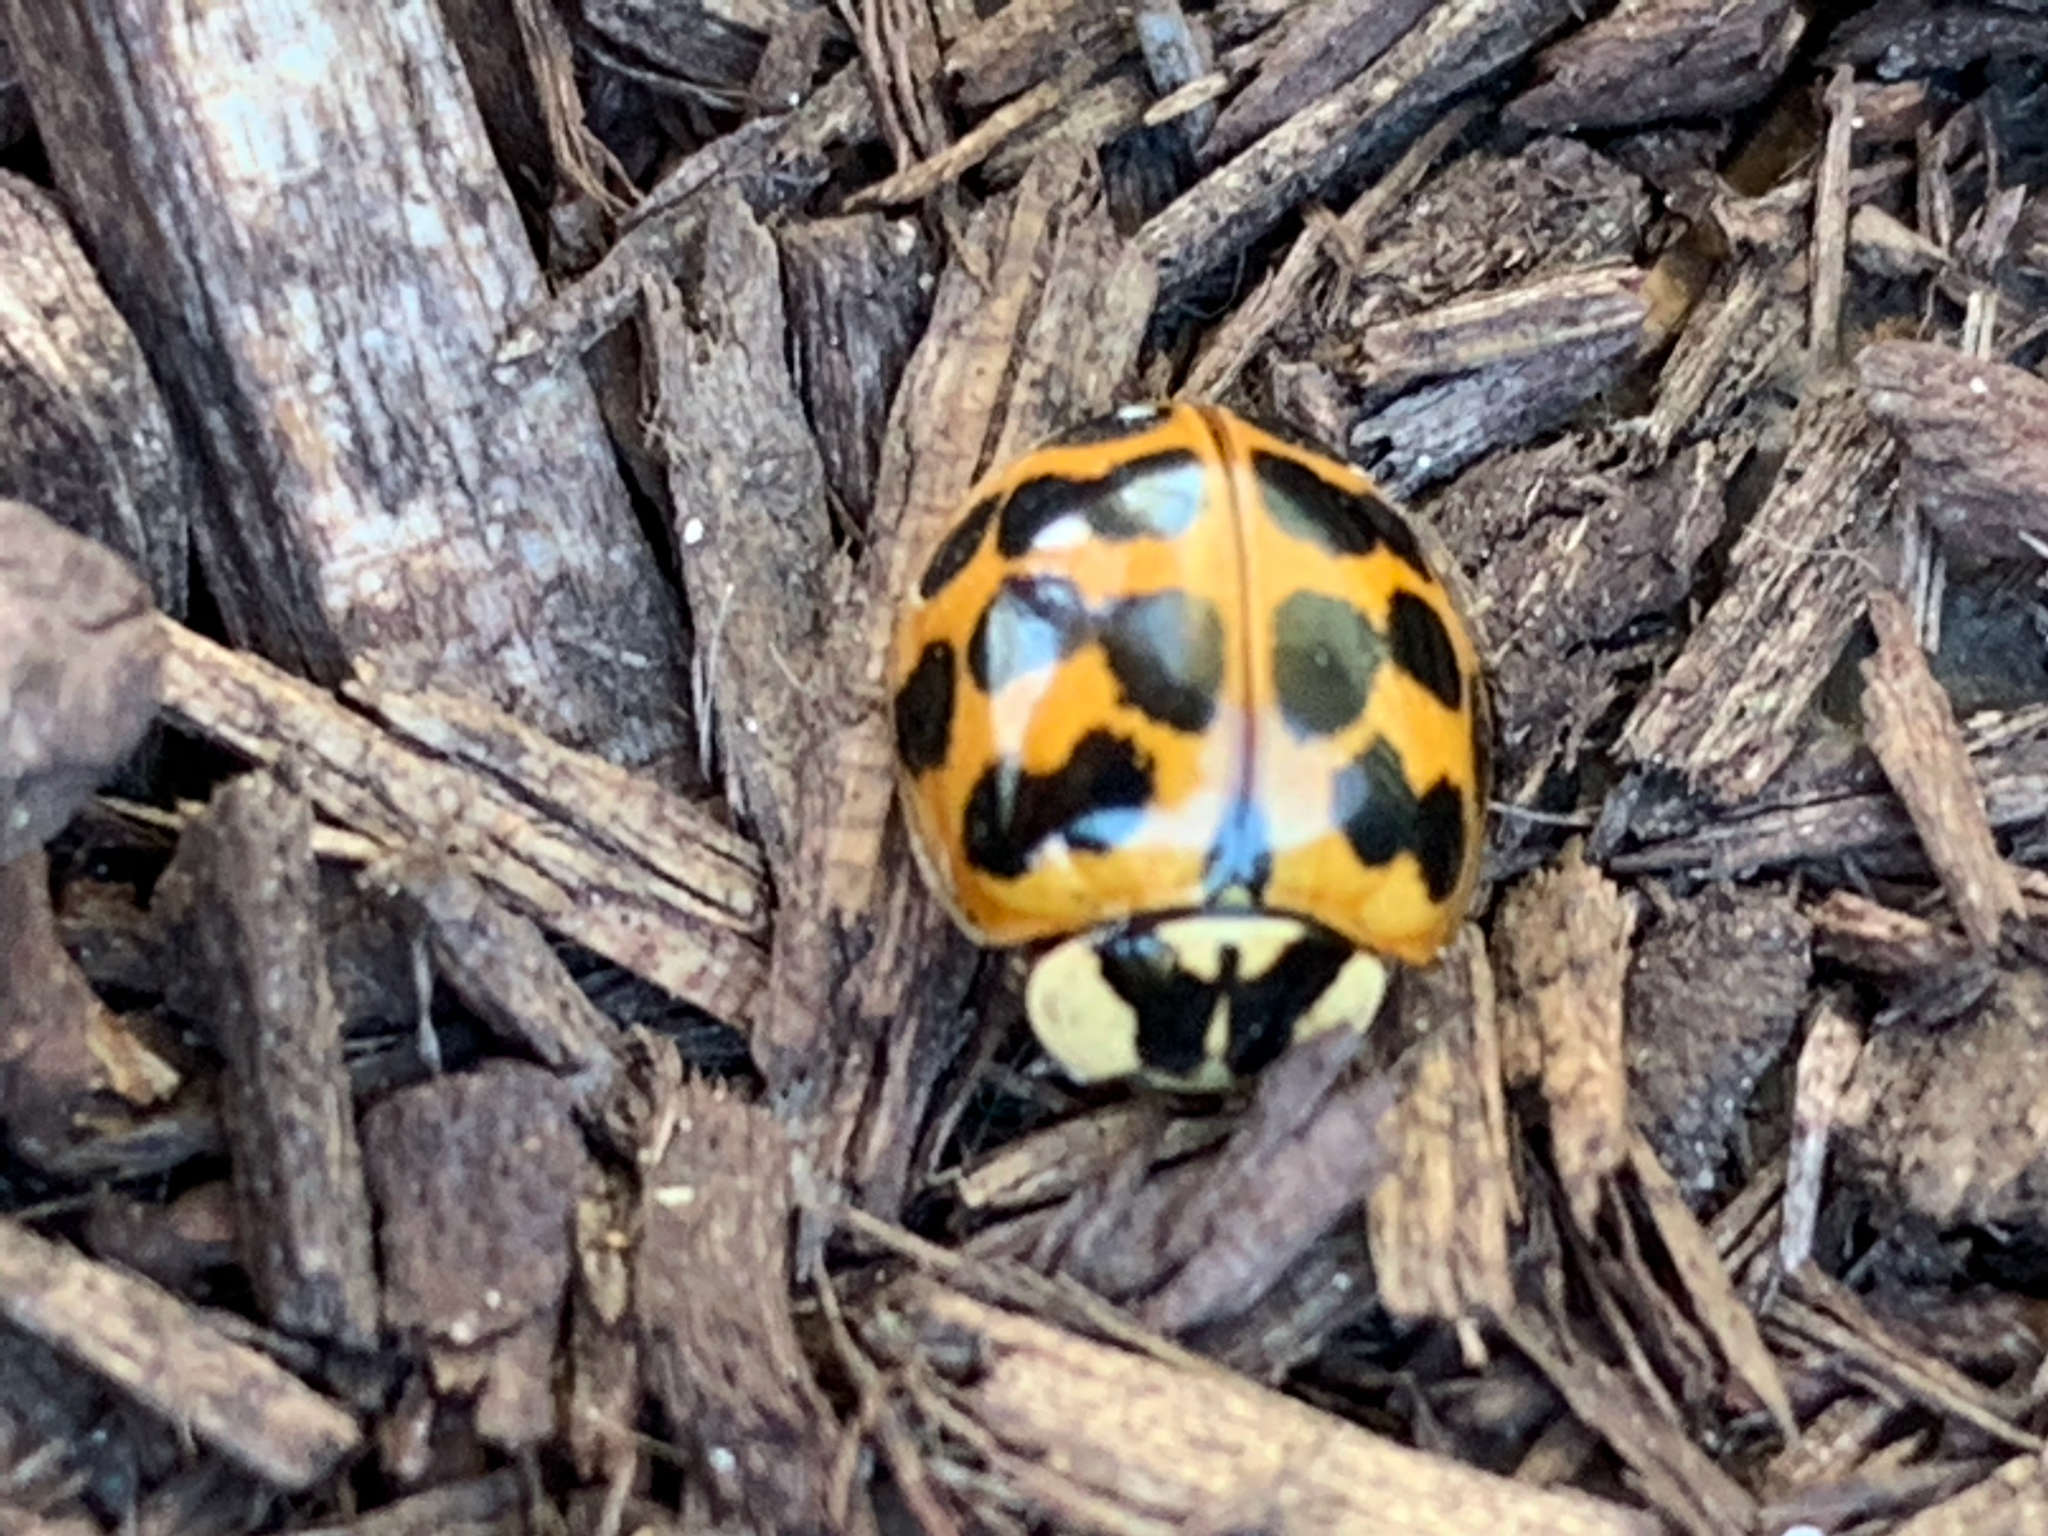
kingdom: Animalia
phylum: Arthropoda
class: Insecta
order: Coleoptera
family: Coccinellidae
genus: Harmonia
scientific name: Harmonia axyridis
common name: Harlequin ladybird
